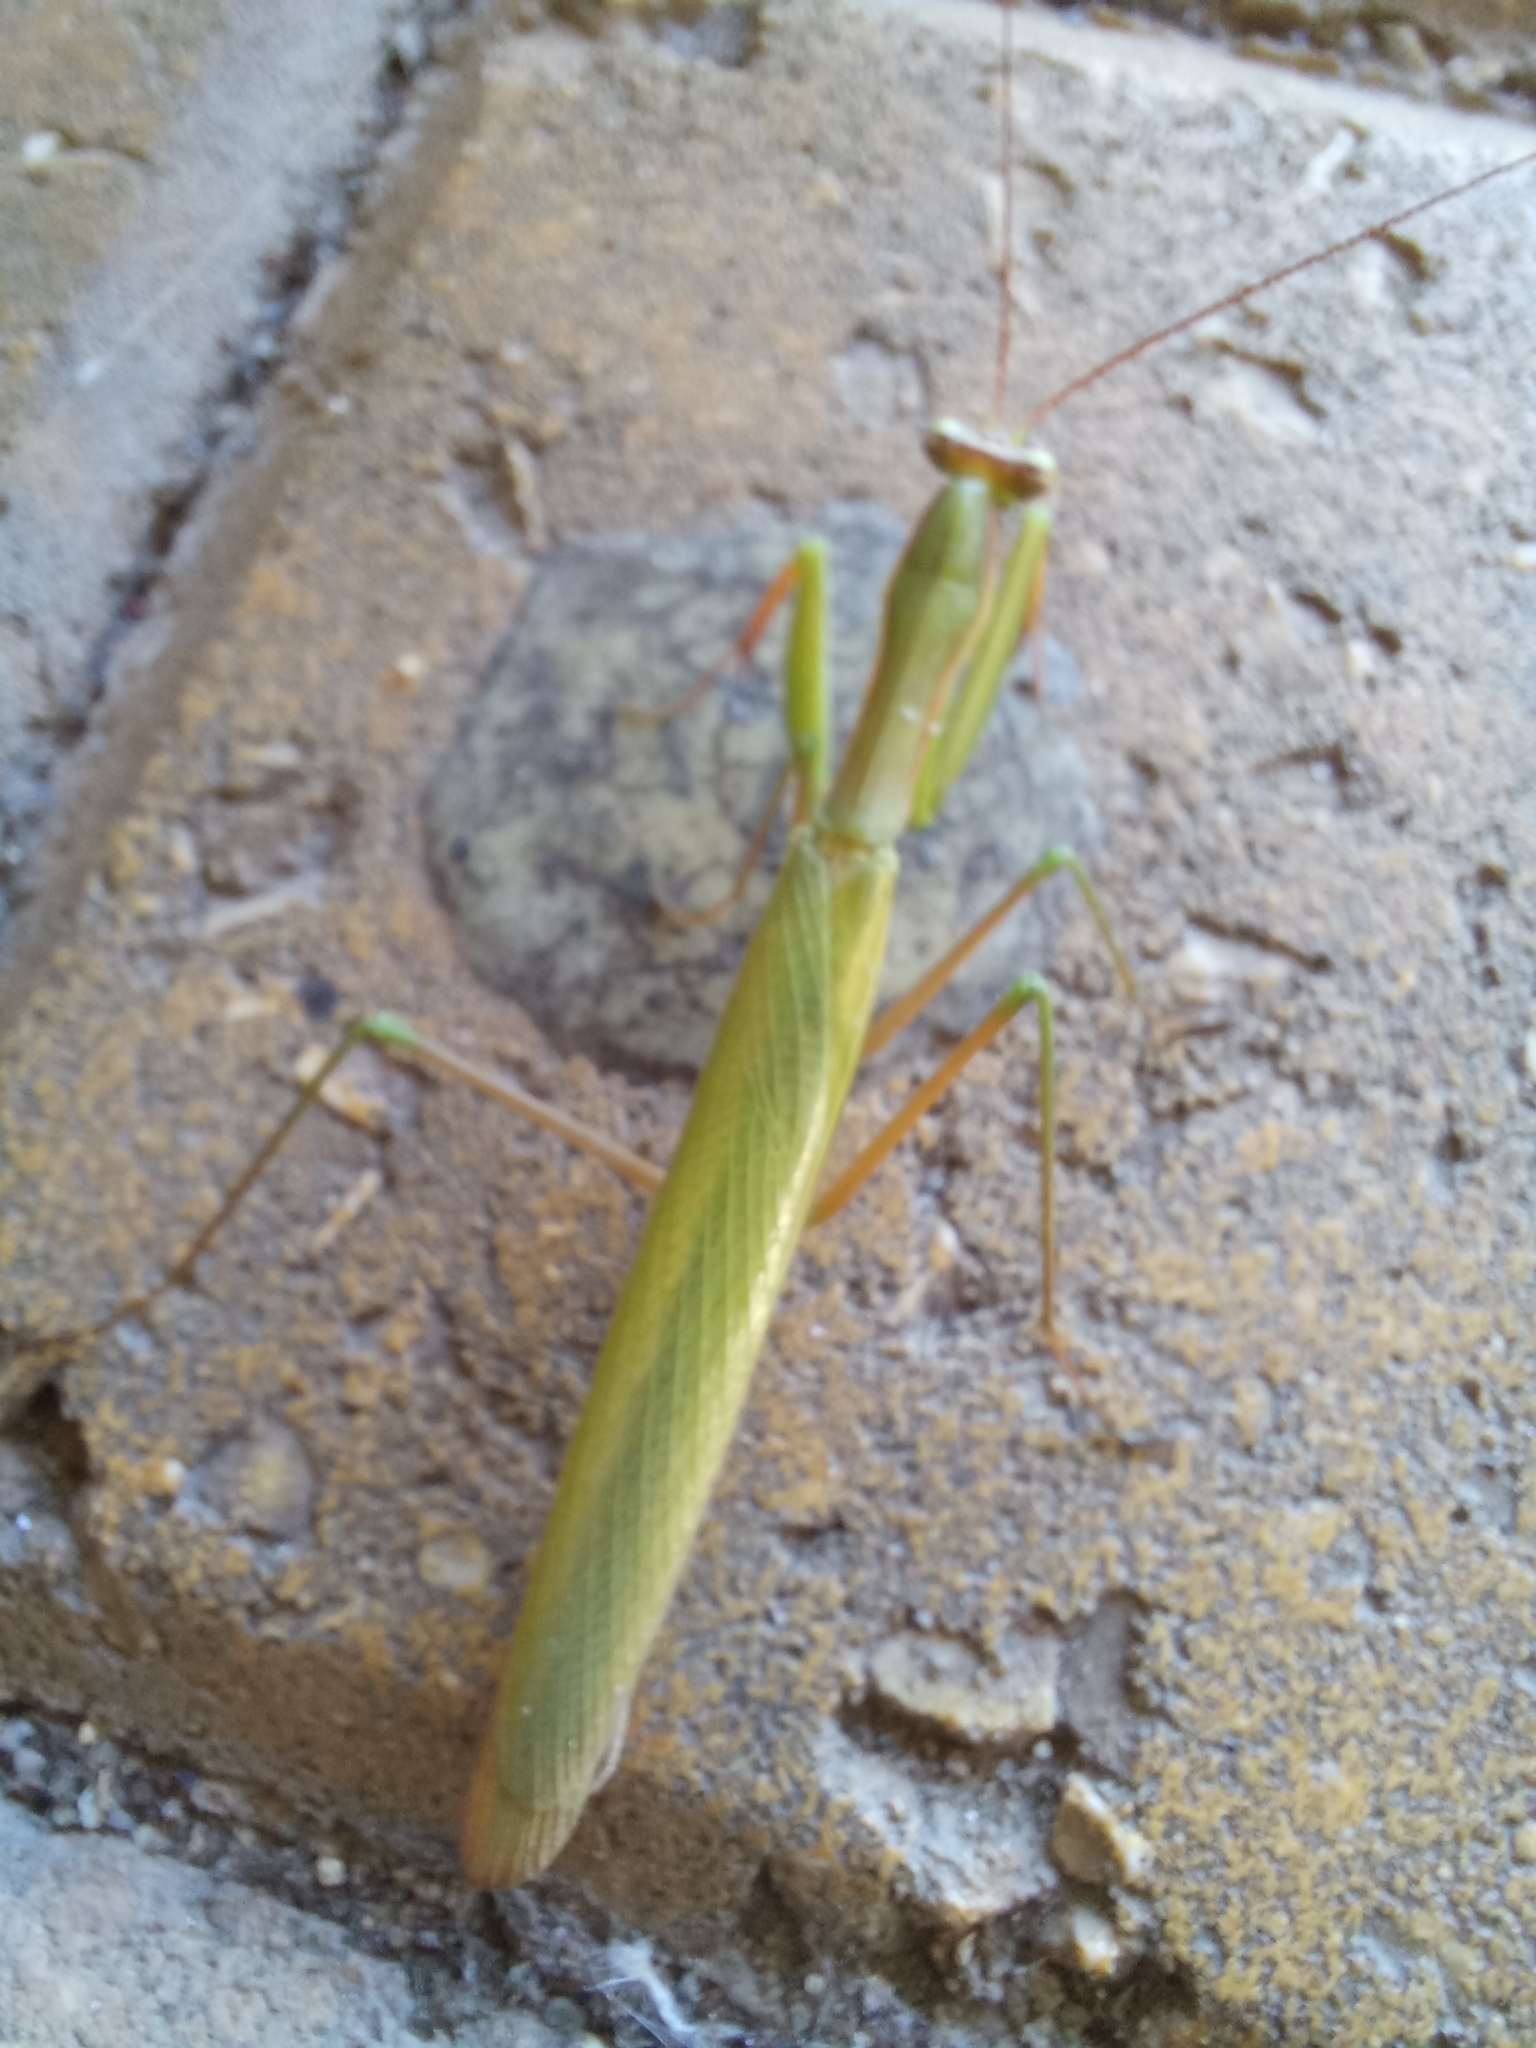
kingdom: Animalia
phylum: Arthropoda
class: Insecta
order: Mantodea
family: Mantidae
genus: Mantis
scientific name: Mantis religiosa
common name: Praying mantis
